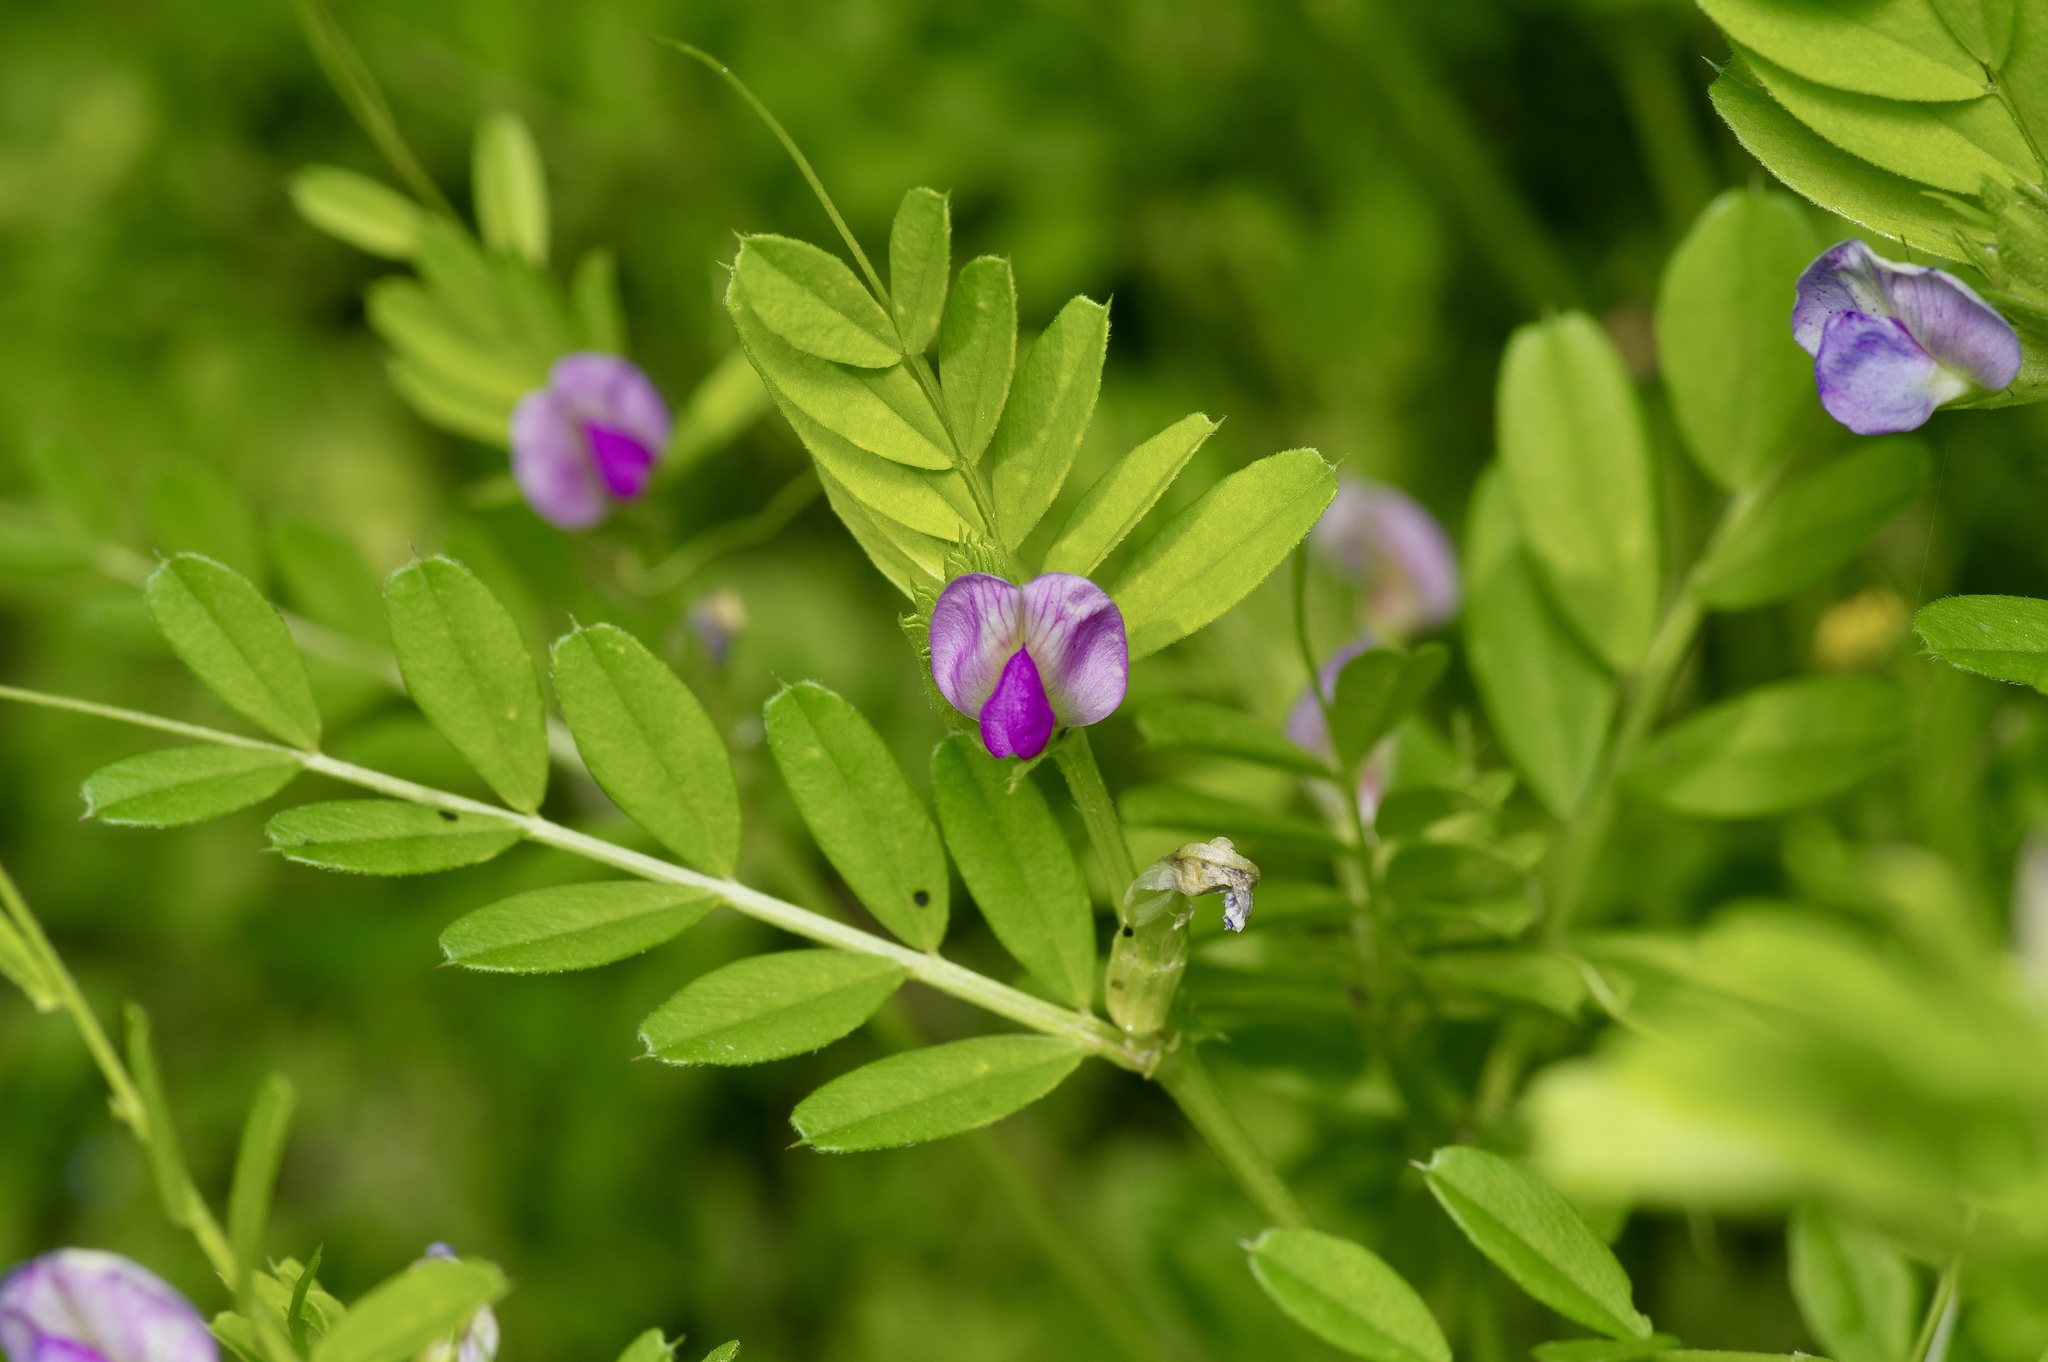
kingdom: Plantae
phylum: Tracheophyta
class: Magnoliopsida
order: Fabales
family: Fabaceae
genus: Vicia
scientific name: Vicia sativa
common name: Garden vetch
